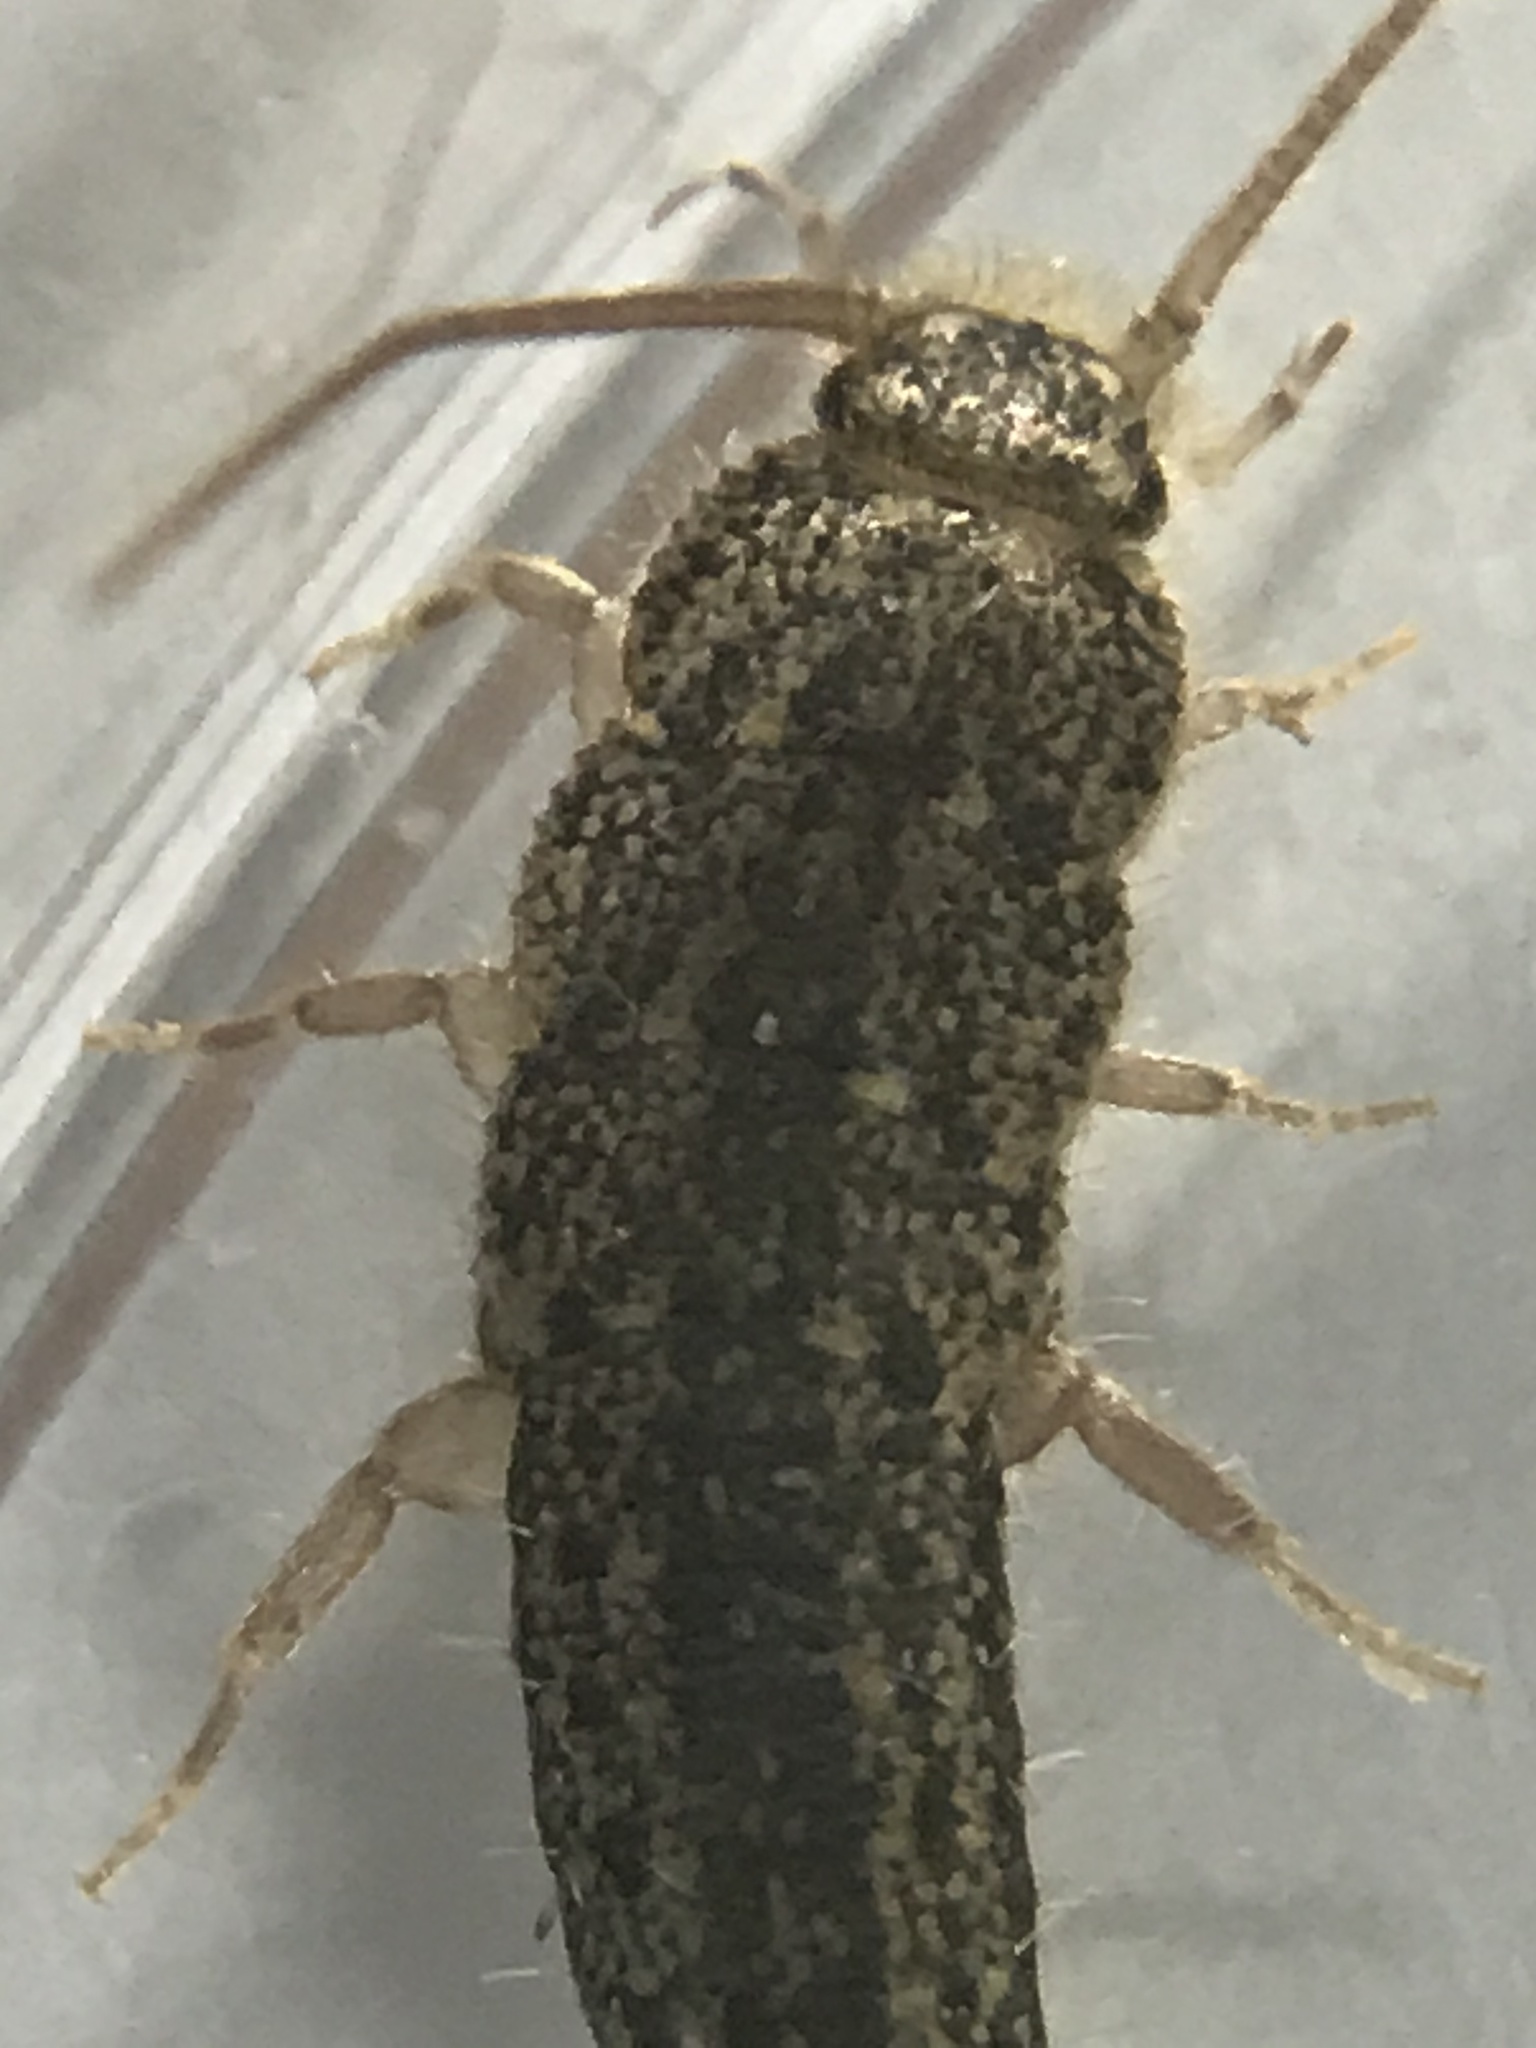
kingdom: Animalia
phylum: Arthropoda
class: Insecta
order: Zygentoma
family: Lepismatidae
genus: Ctenolepisma
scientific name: Ctenolepisma lineata
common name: Four-lined silverfish
